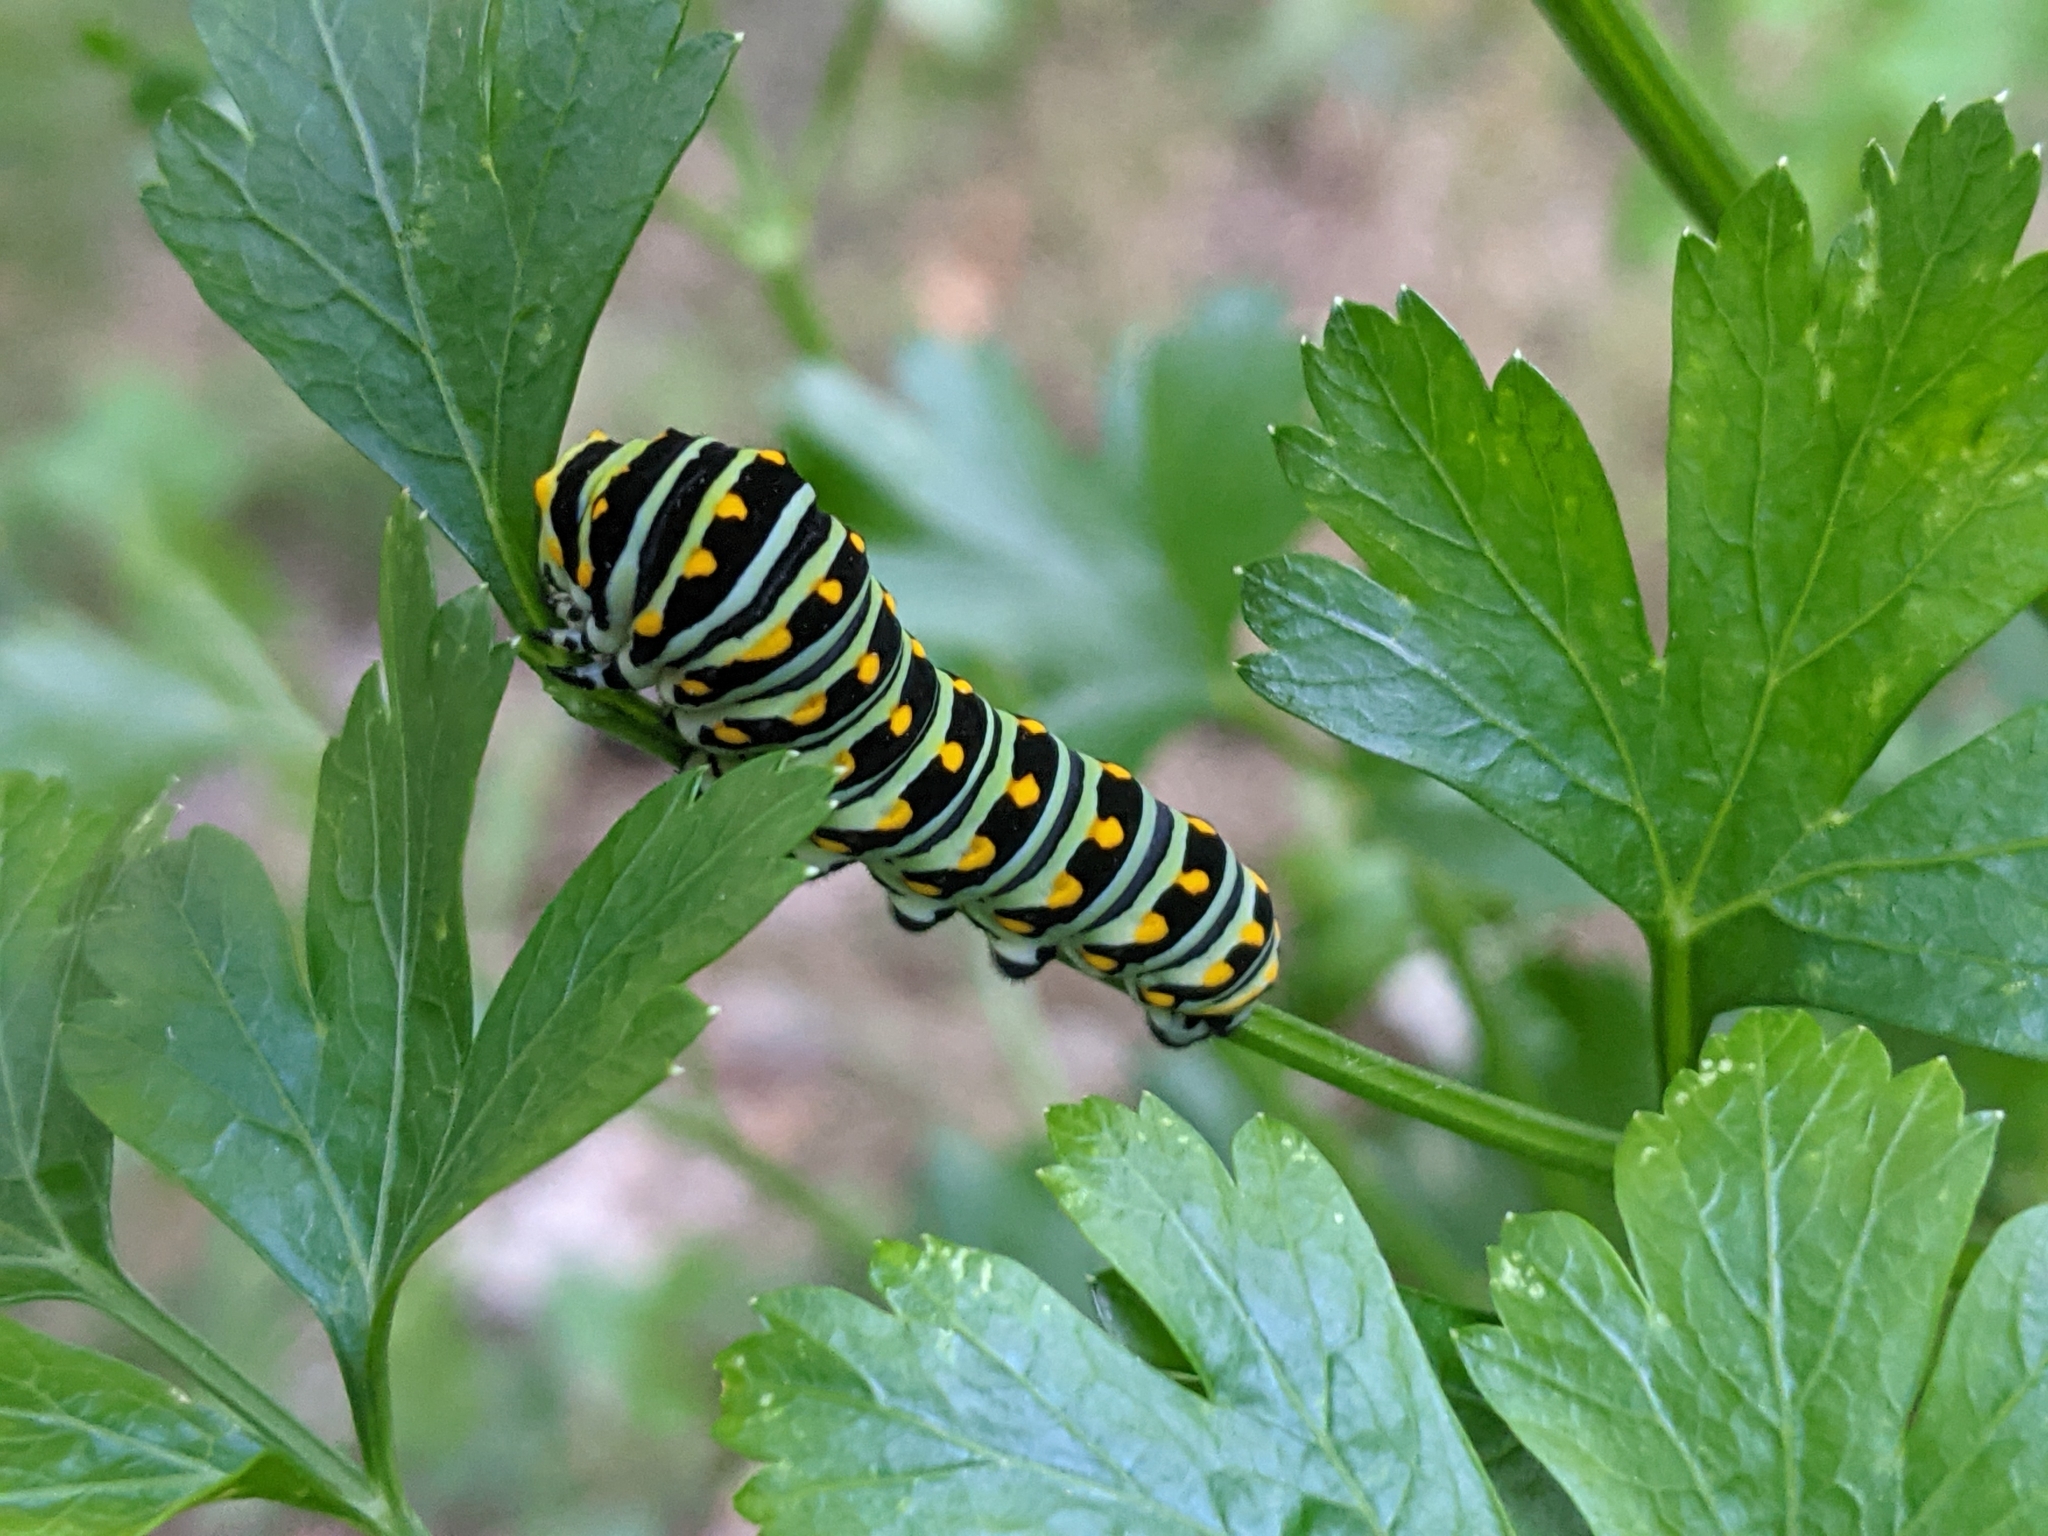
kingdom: Animalia
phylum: Arthropoda
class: Insecta
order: Lepidoptera
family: Papilionidae
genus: Papilio
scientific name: Papilio polyxenes
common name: Black swallowtail
